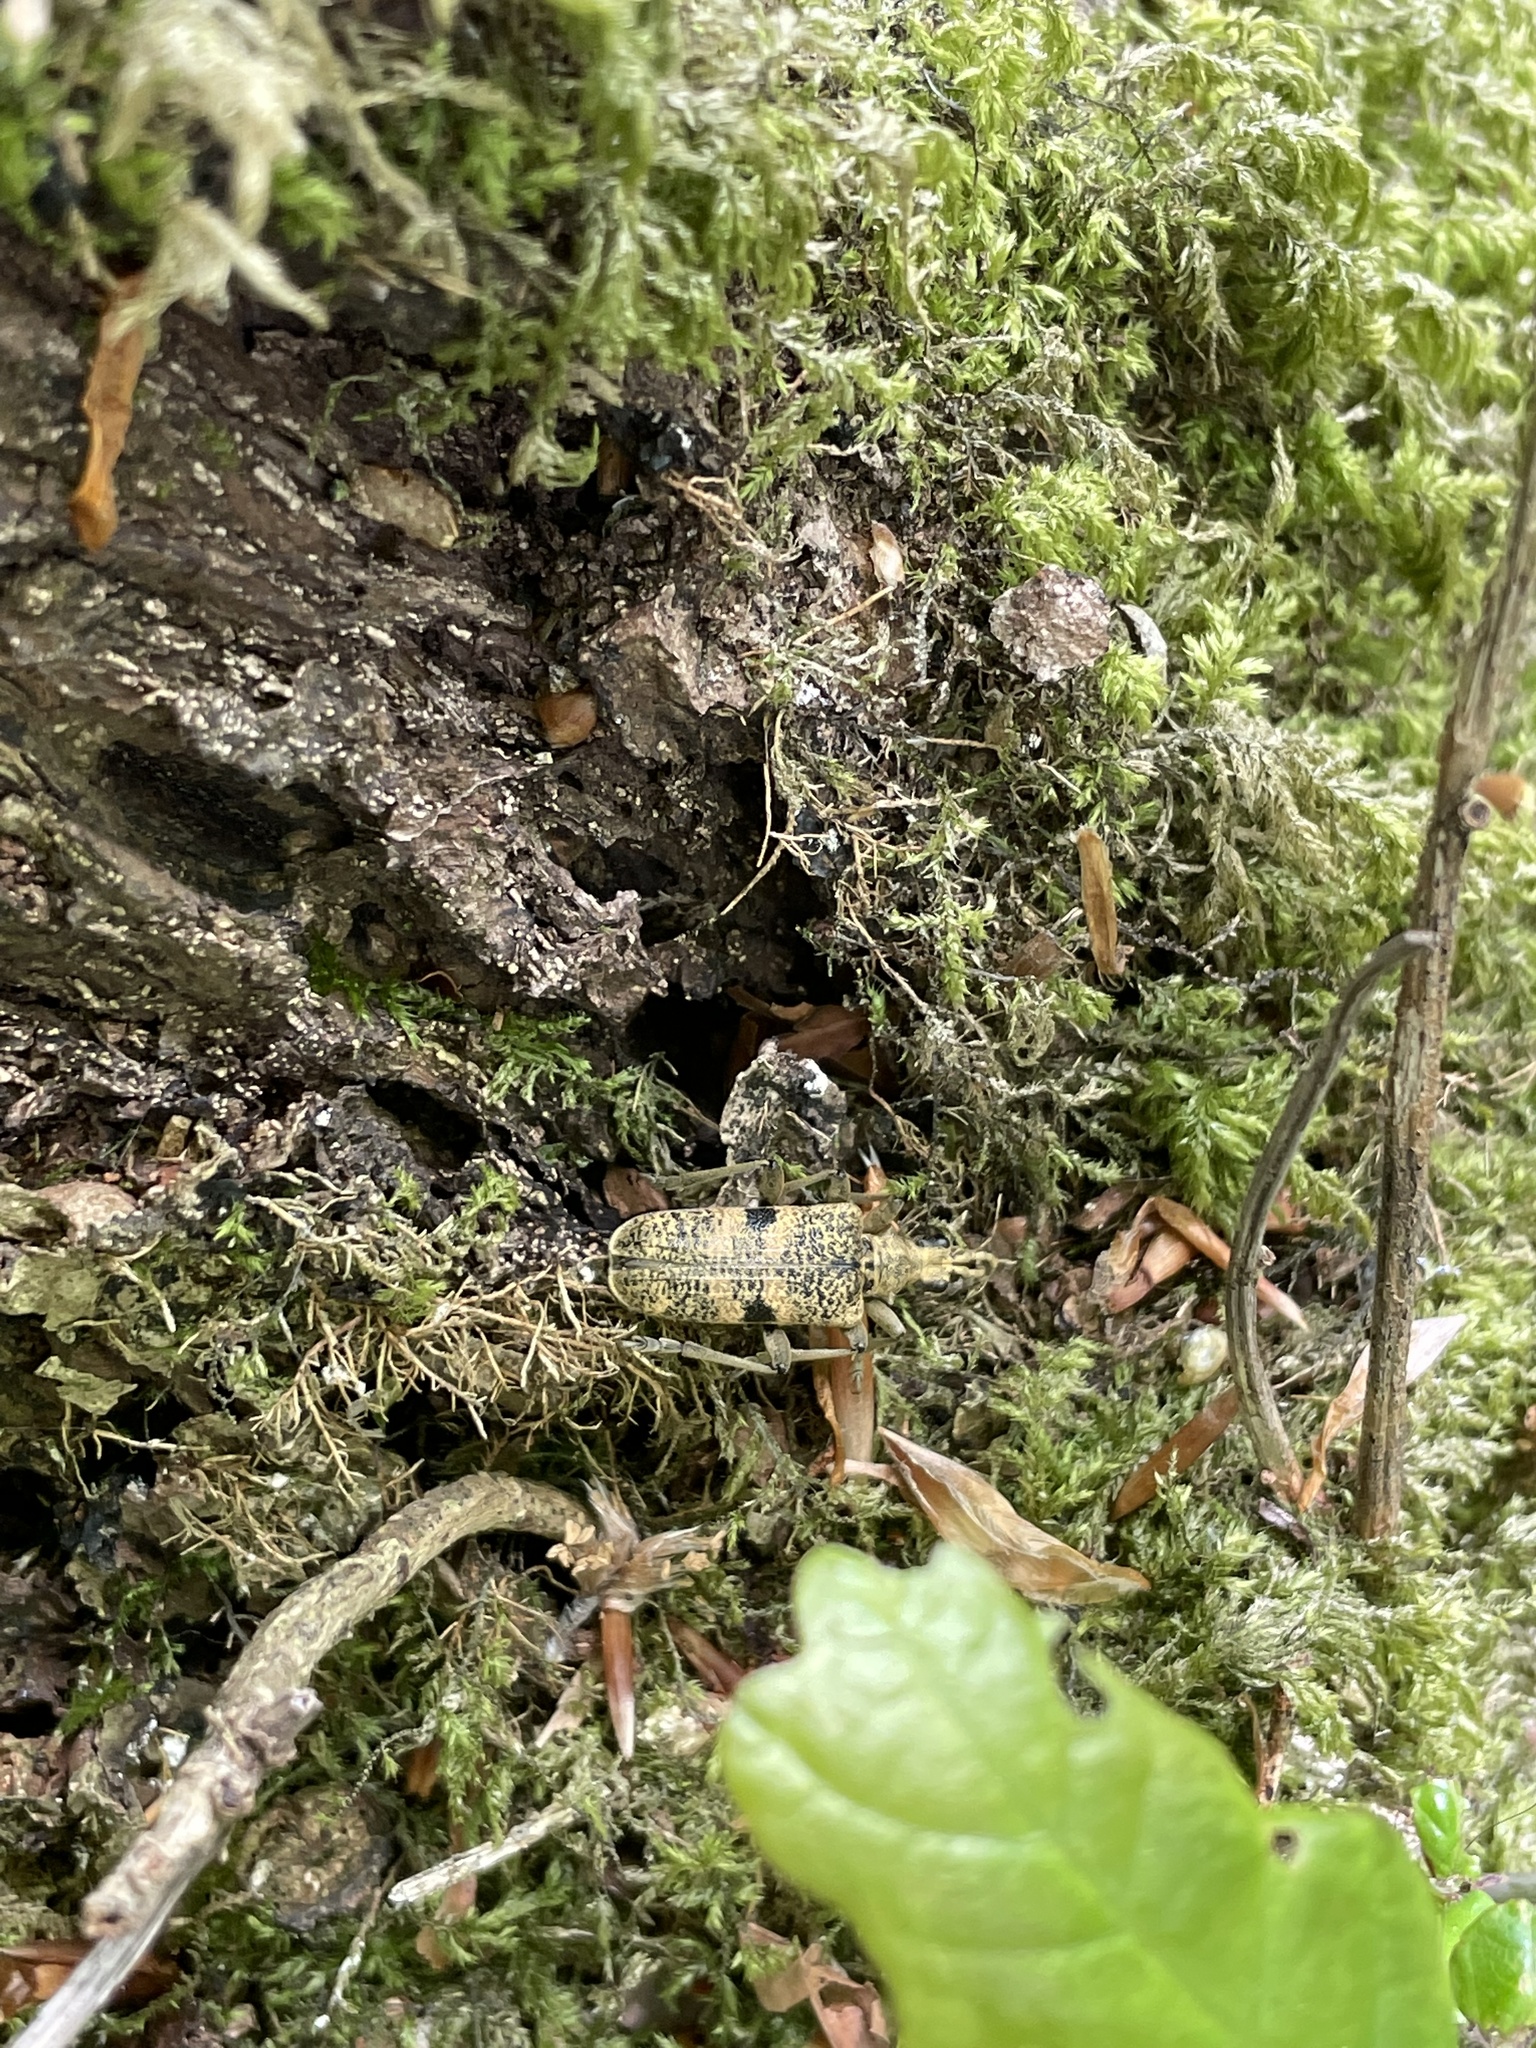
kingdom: Animalia
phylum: Arthropoda
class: Insecta
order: Coleoptera
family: Cerambycidae
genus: Rhagium
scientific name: Rhagium mordax
